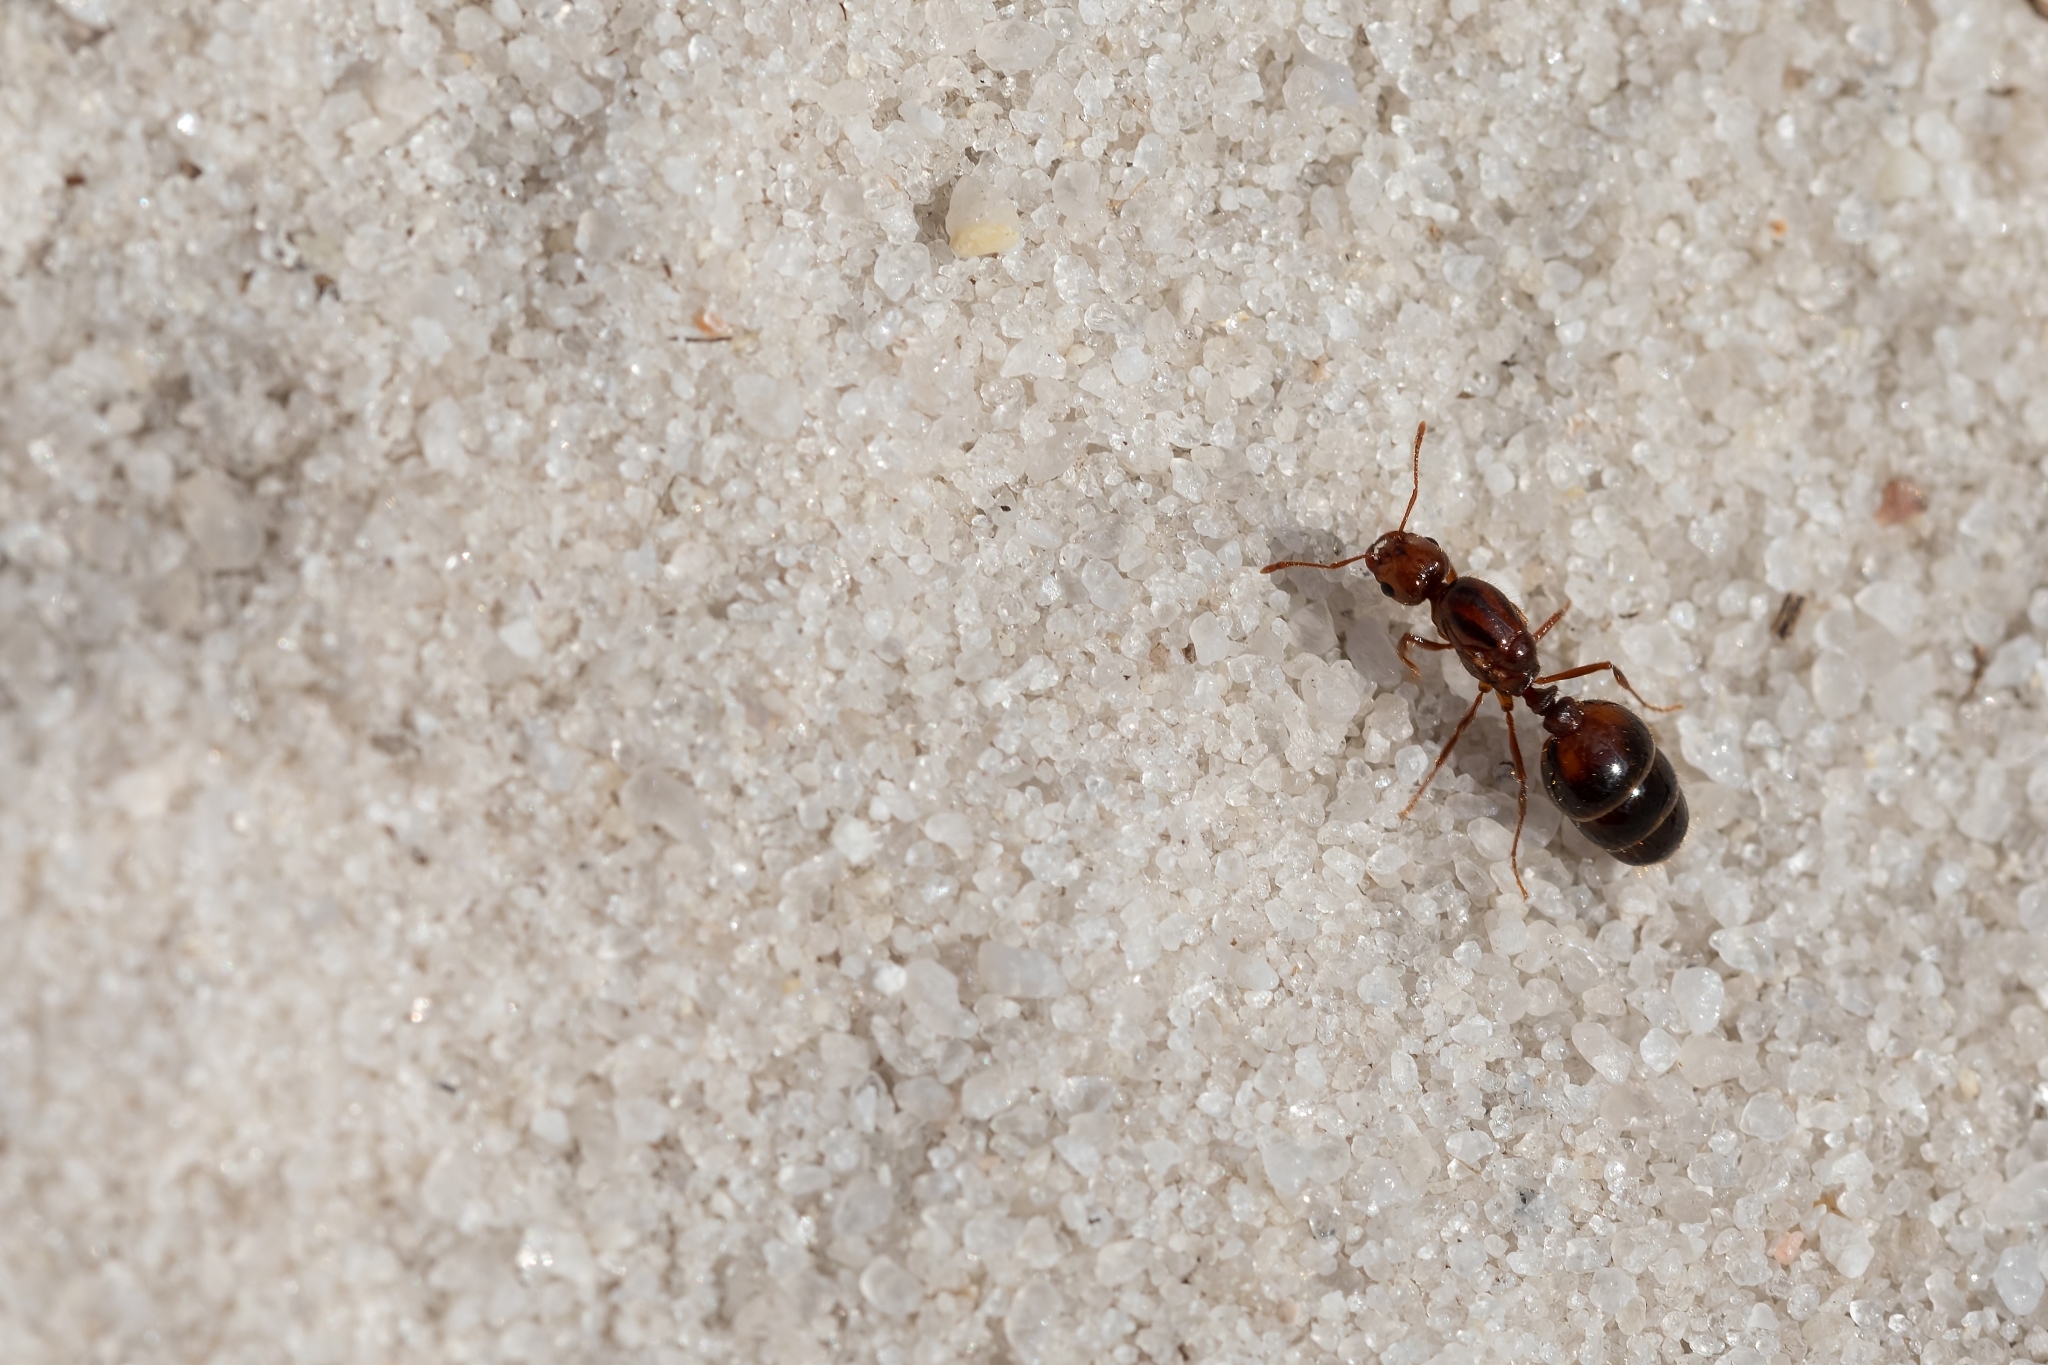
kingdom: Animalia
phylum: Arthropoda
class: Insecta
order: Hymenoptera
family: Formicidae
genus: Solenopsis
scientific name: Solenopsis invicta
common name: Red imported fire ant
